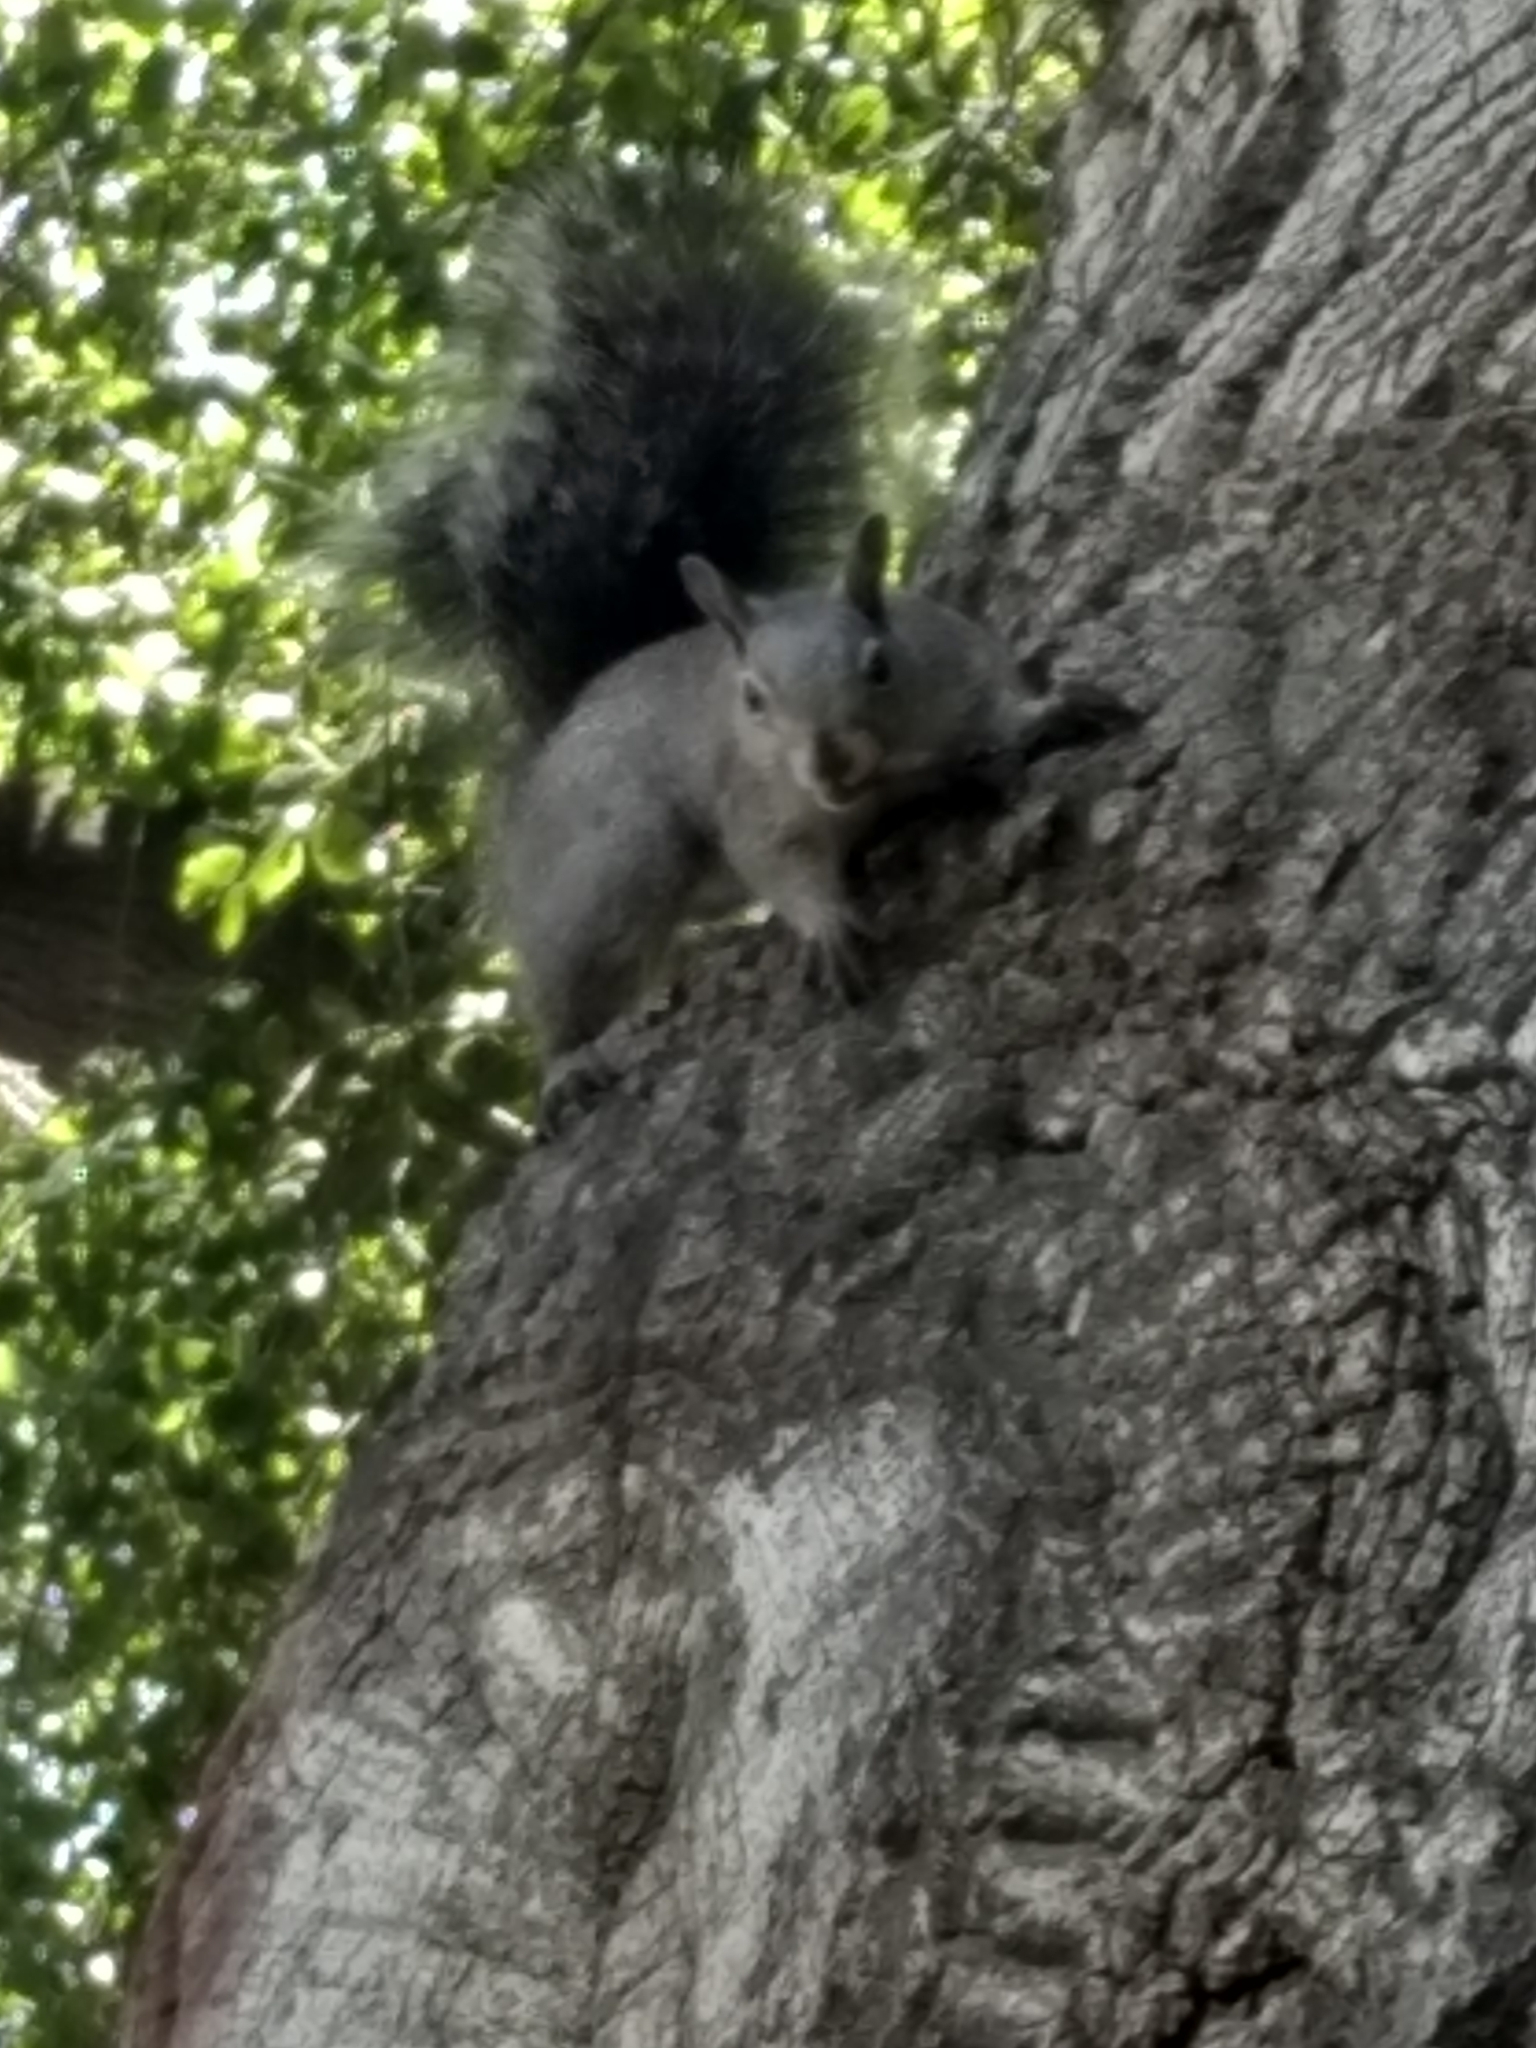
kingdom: Animalia
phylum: Chordata
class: Mammalia
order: Rodentia
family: Sciuridae
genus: Sciurus
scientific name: Sciurus griseus
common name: Western gray squirrel
